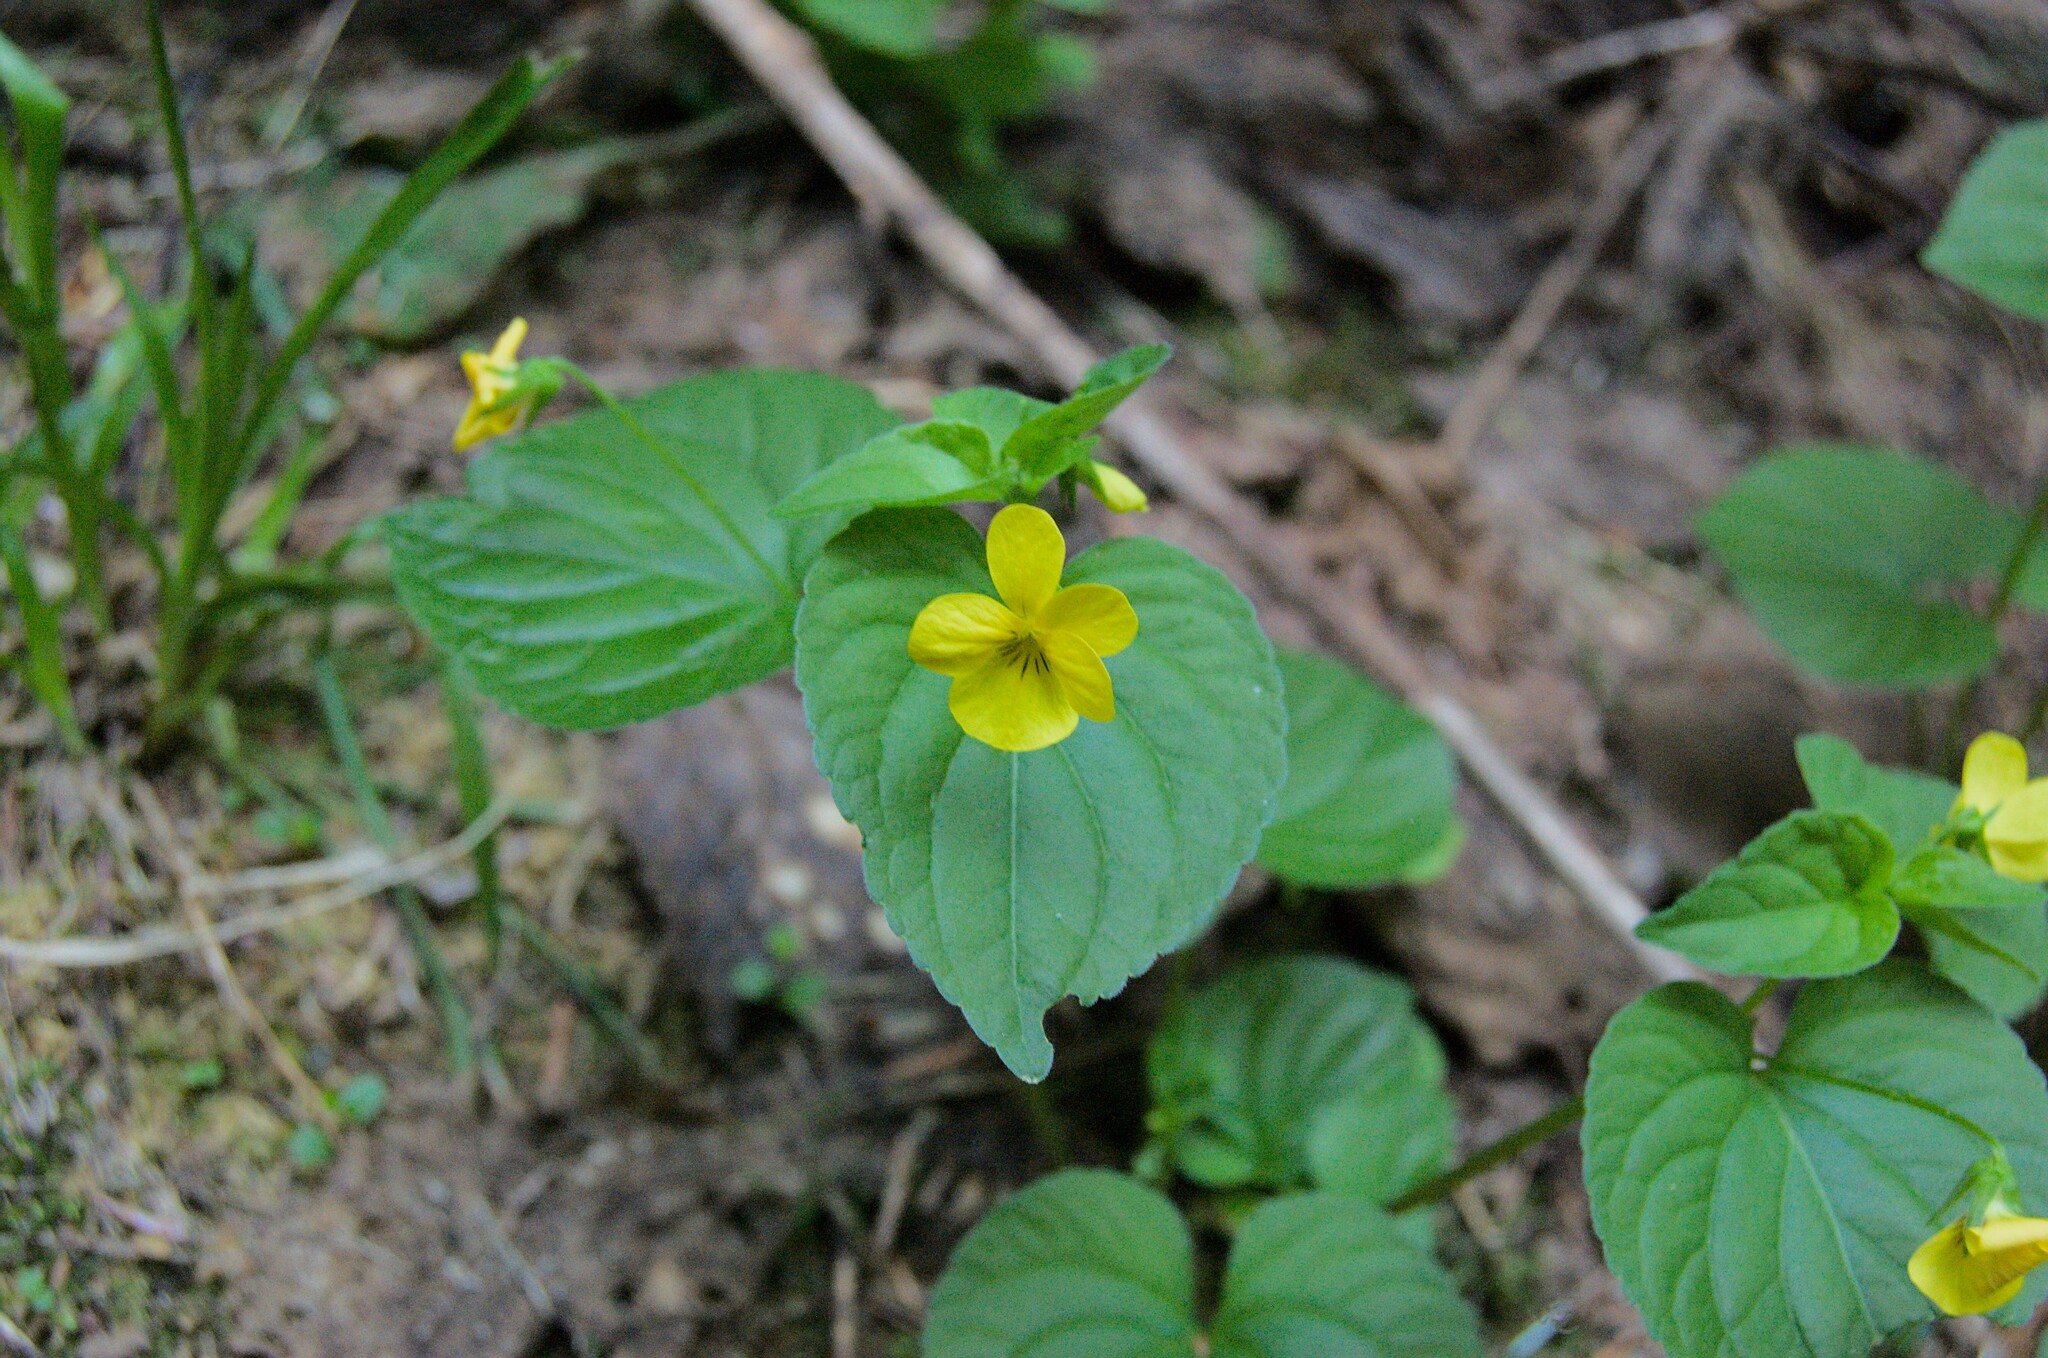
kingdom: Plantae
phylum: Tracheophyta
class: Magnoliopsida
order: Malpighiales
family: Violaceae
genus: Viola
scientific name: Viola glabella
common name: Stream violet
